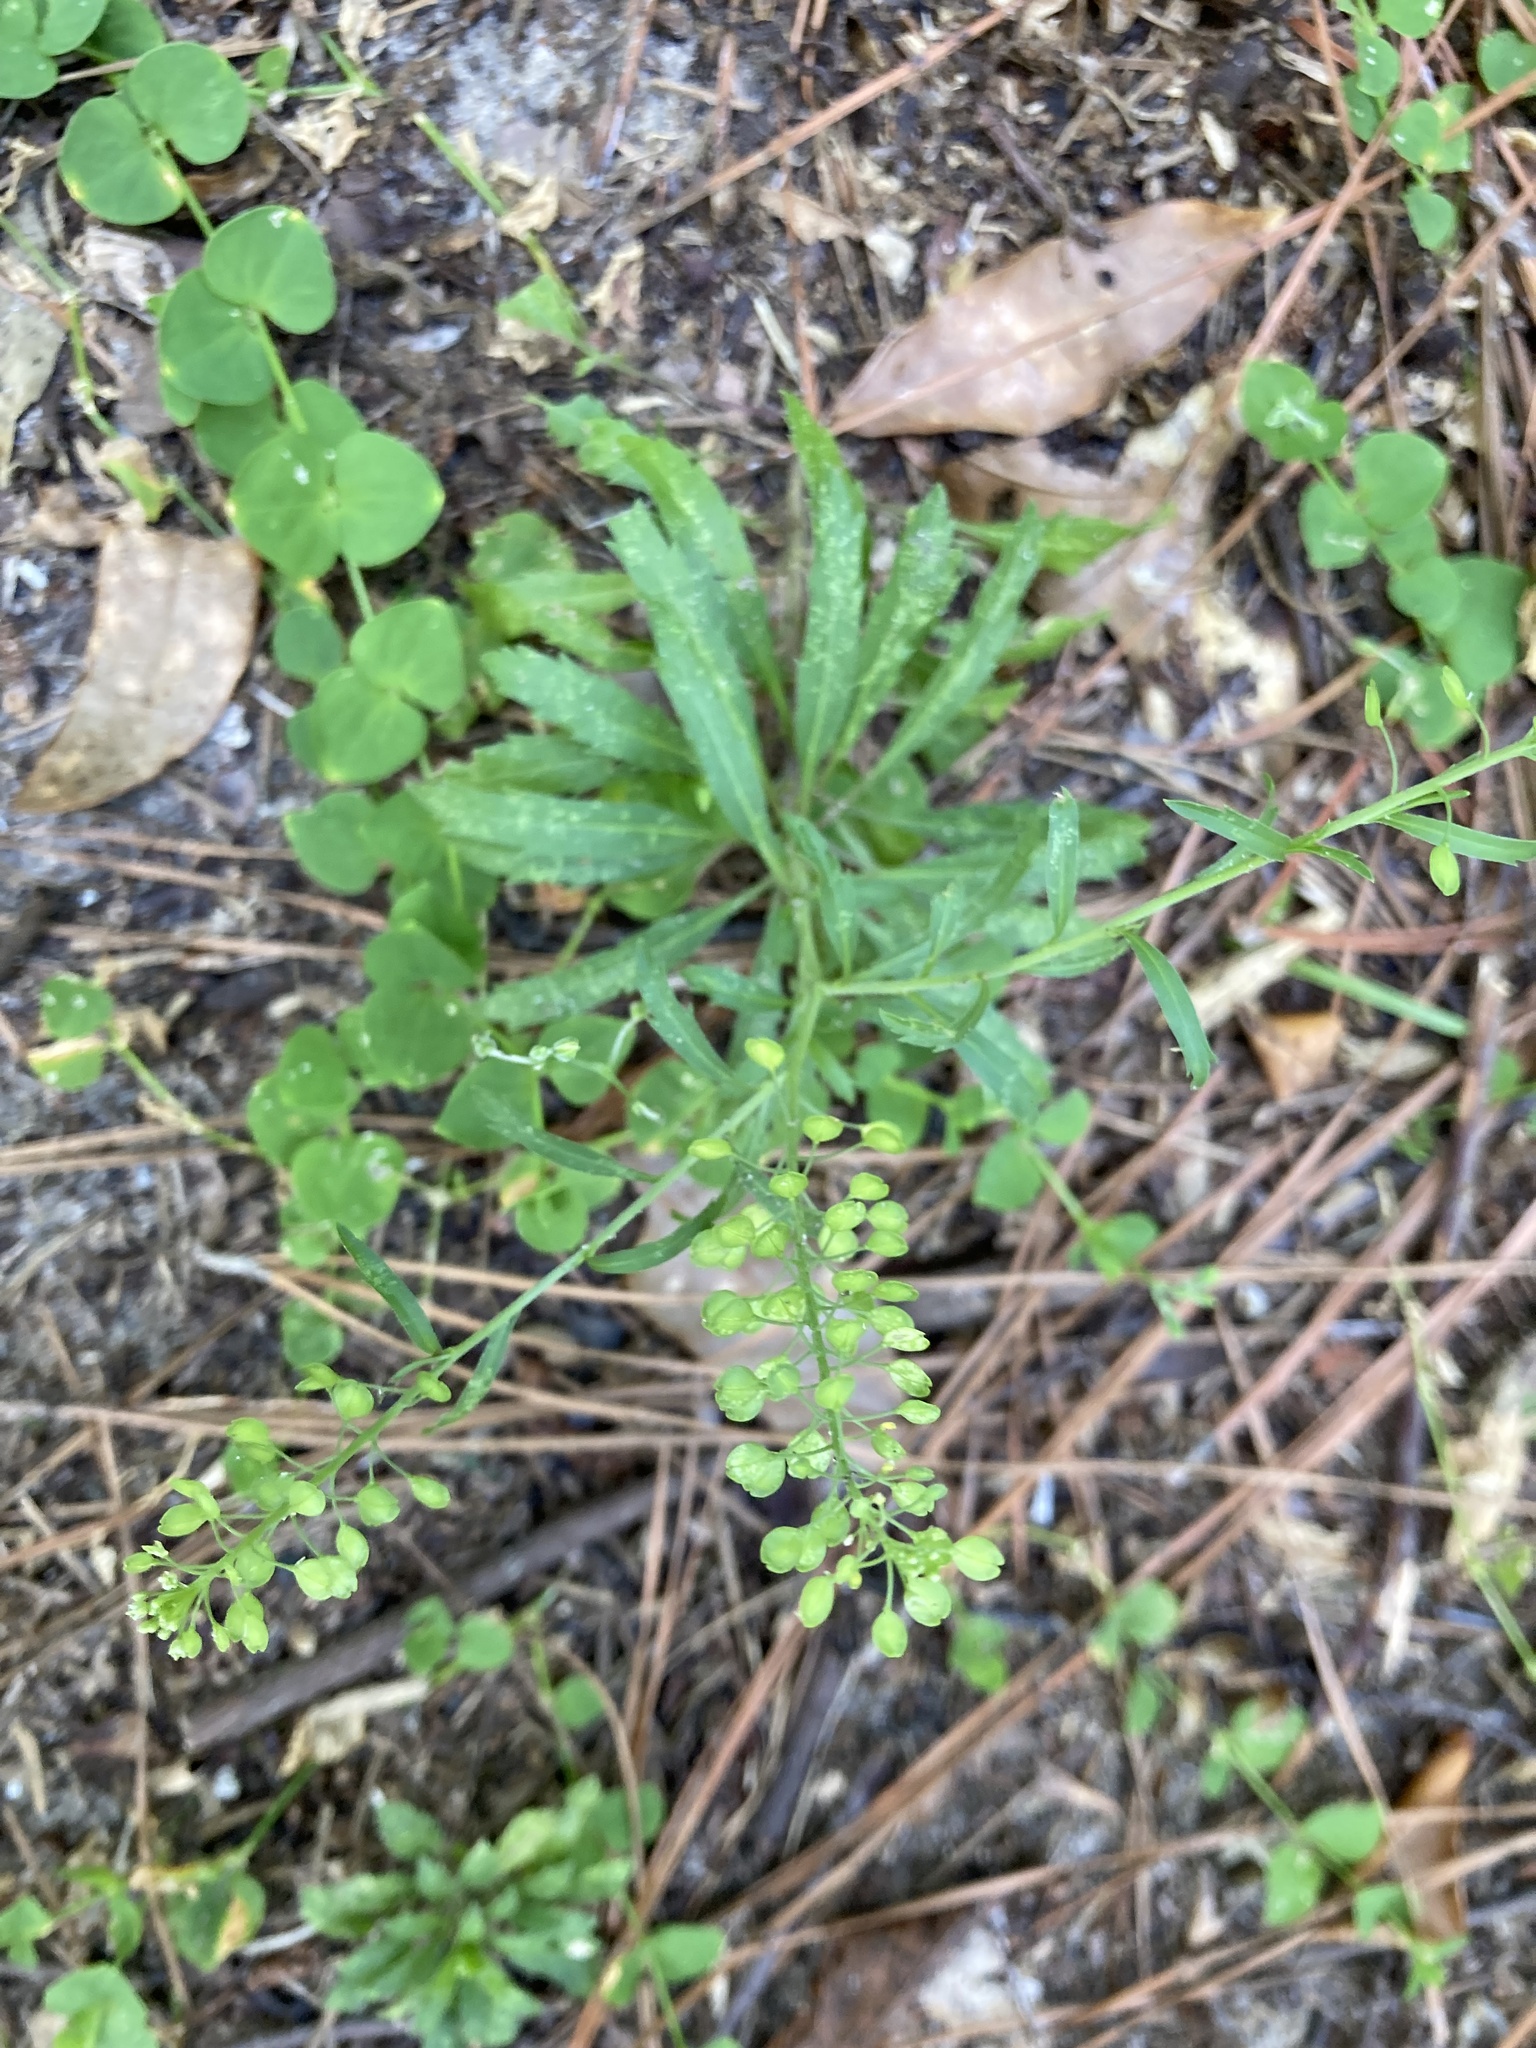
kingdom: Plantae
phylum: Tracheophyta
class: Magnoliopsida
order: Brassicales
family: Brassicaceae
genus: Lepidium
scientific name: Lepidium virginicum
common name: Least pepperwort
